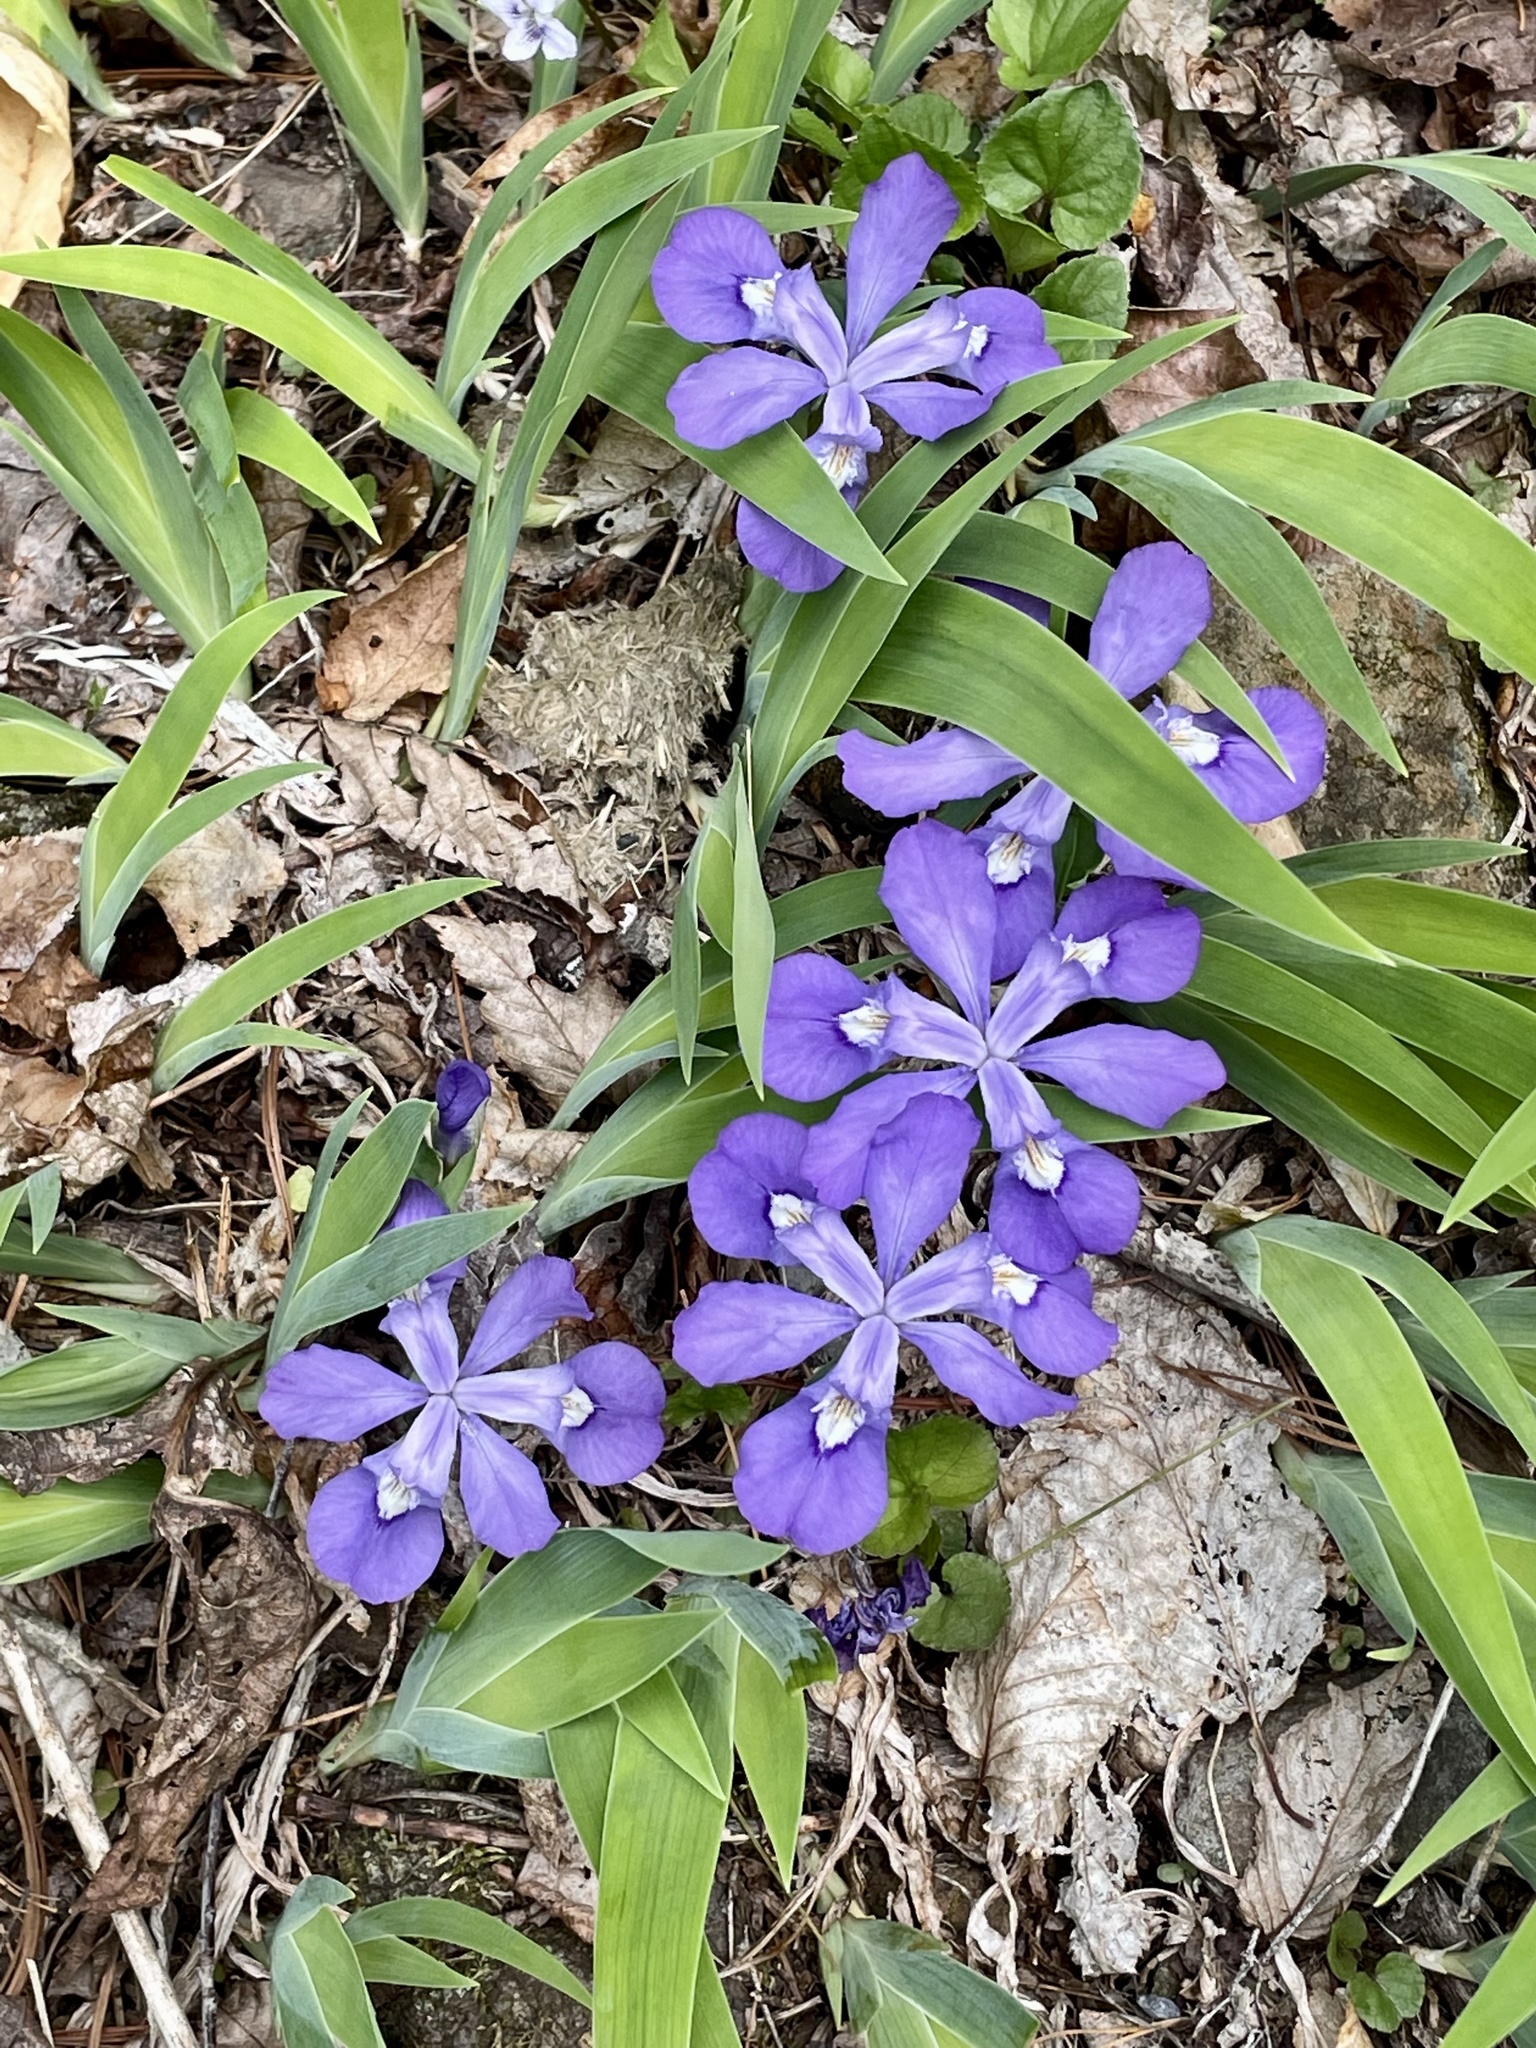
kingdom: Plantae
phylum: Tracheophyta
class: Liliopsida
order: Asparagales
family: Iridaceae
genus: Iris
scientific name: Iris cristata
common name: Crested iris
